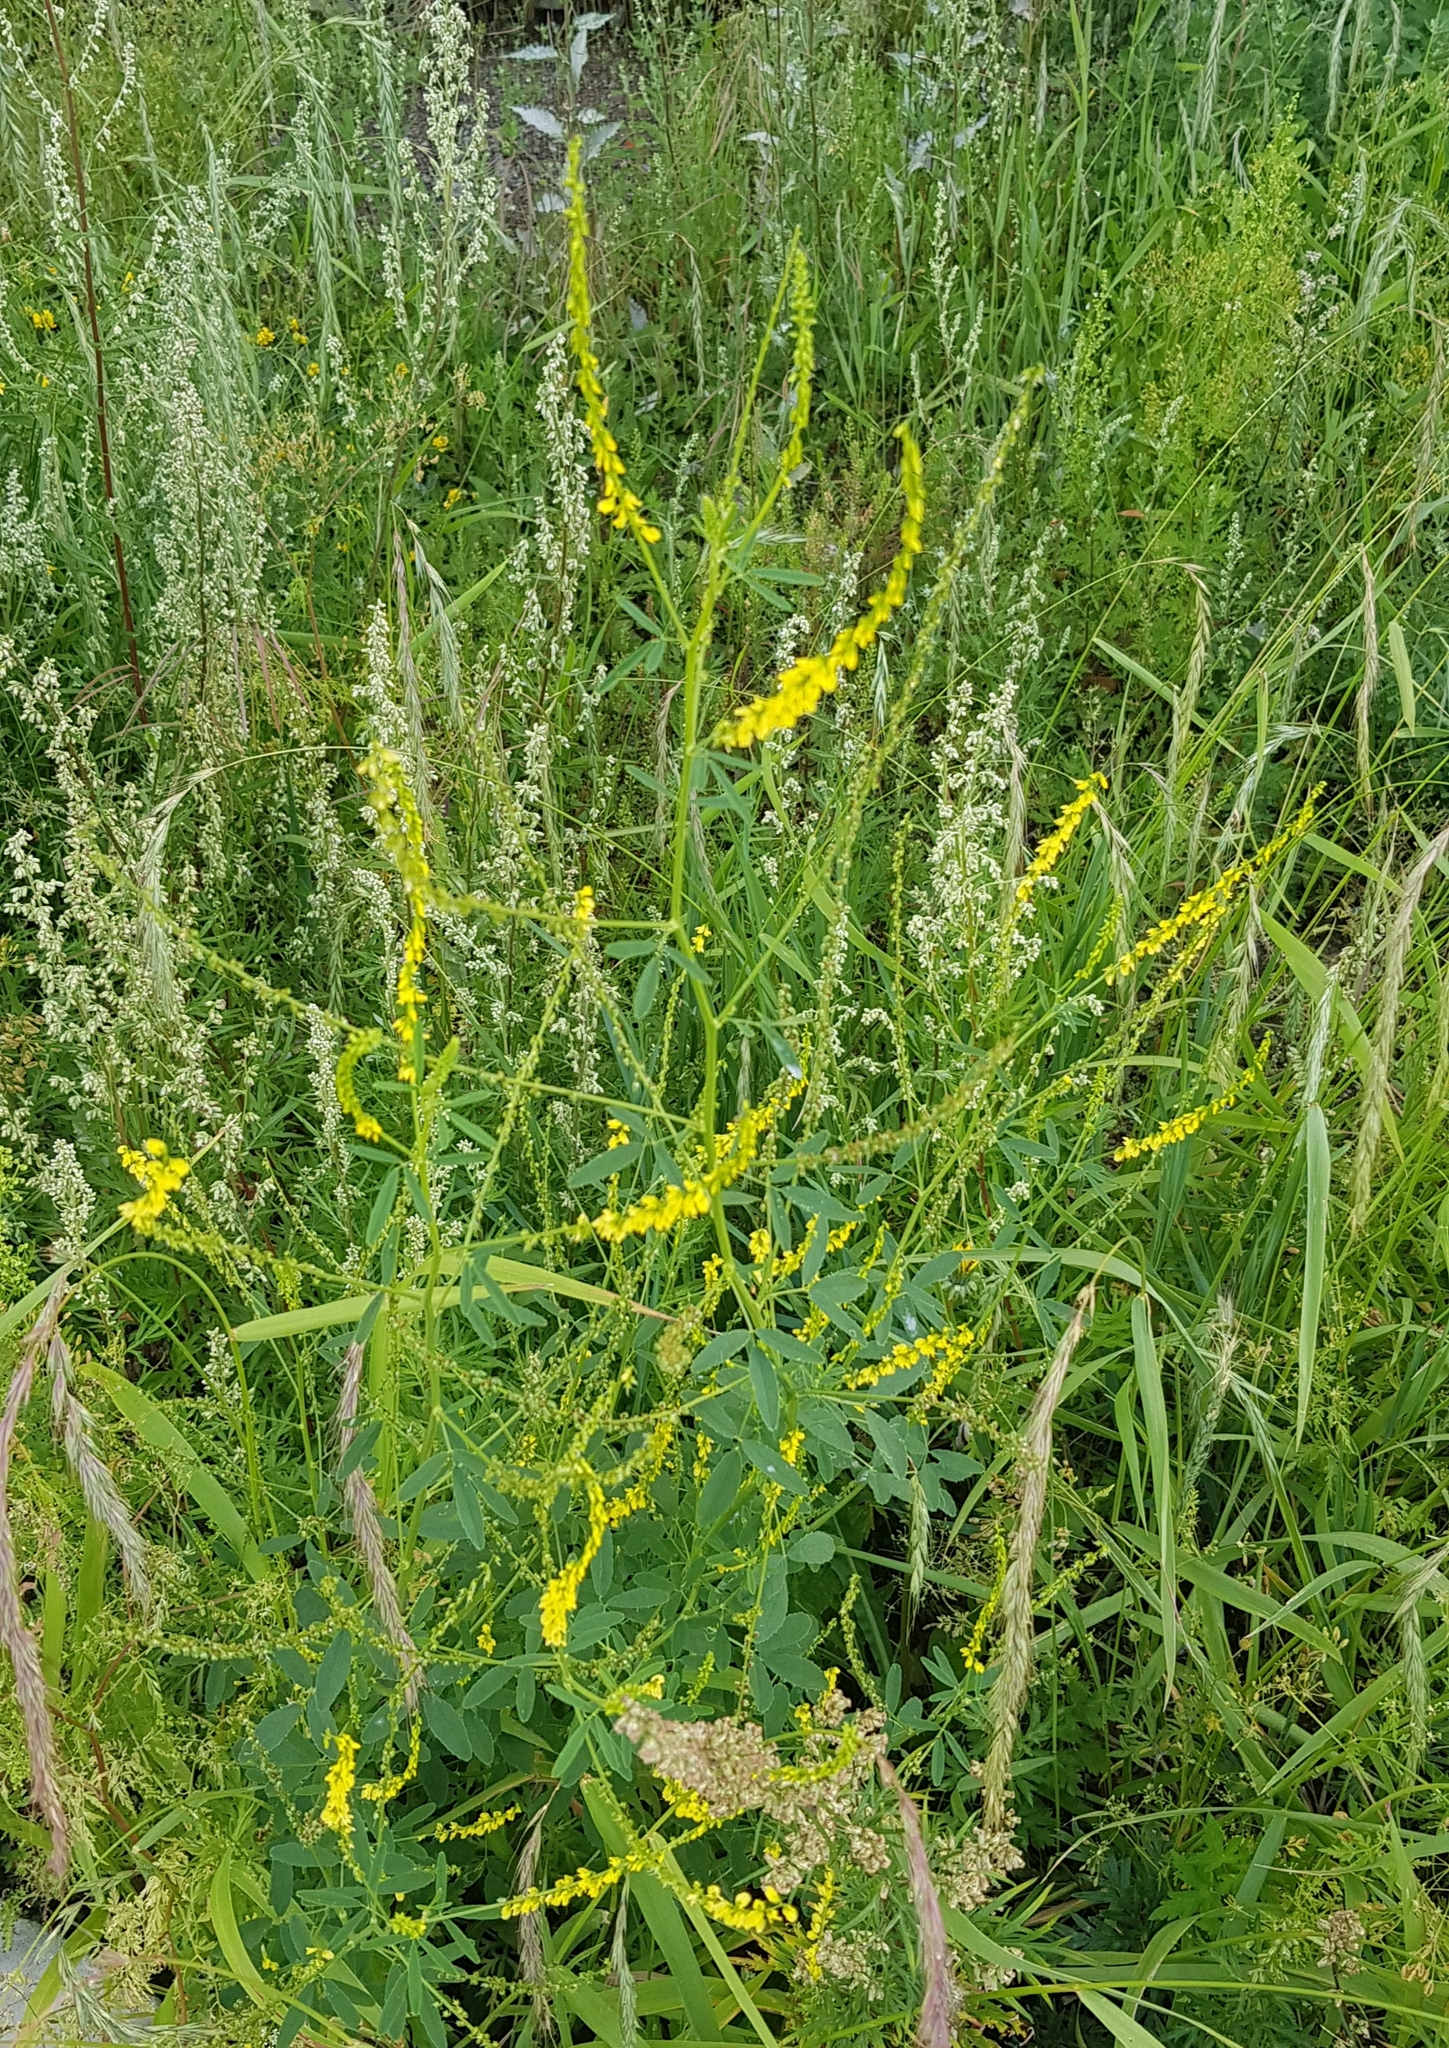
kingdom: Plantae
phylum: Tracheophyta
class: Magnoliopsida
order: Fabales
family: Fabaceae
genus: Melilotus
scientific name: Melilotus officinalis
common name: Sweetclover
